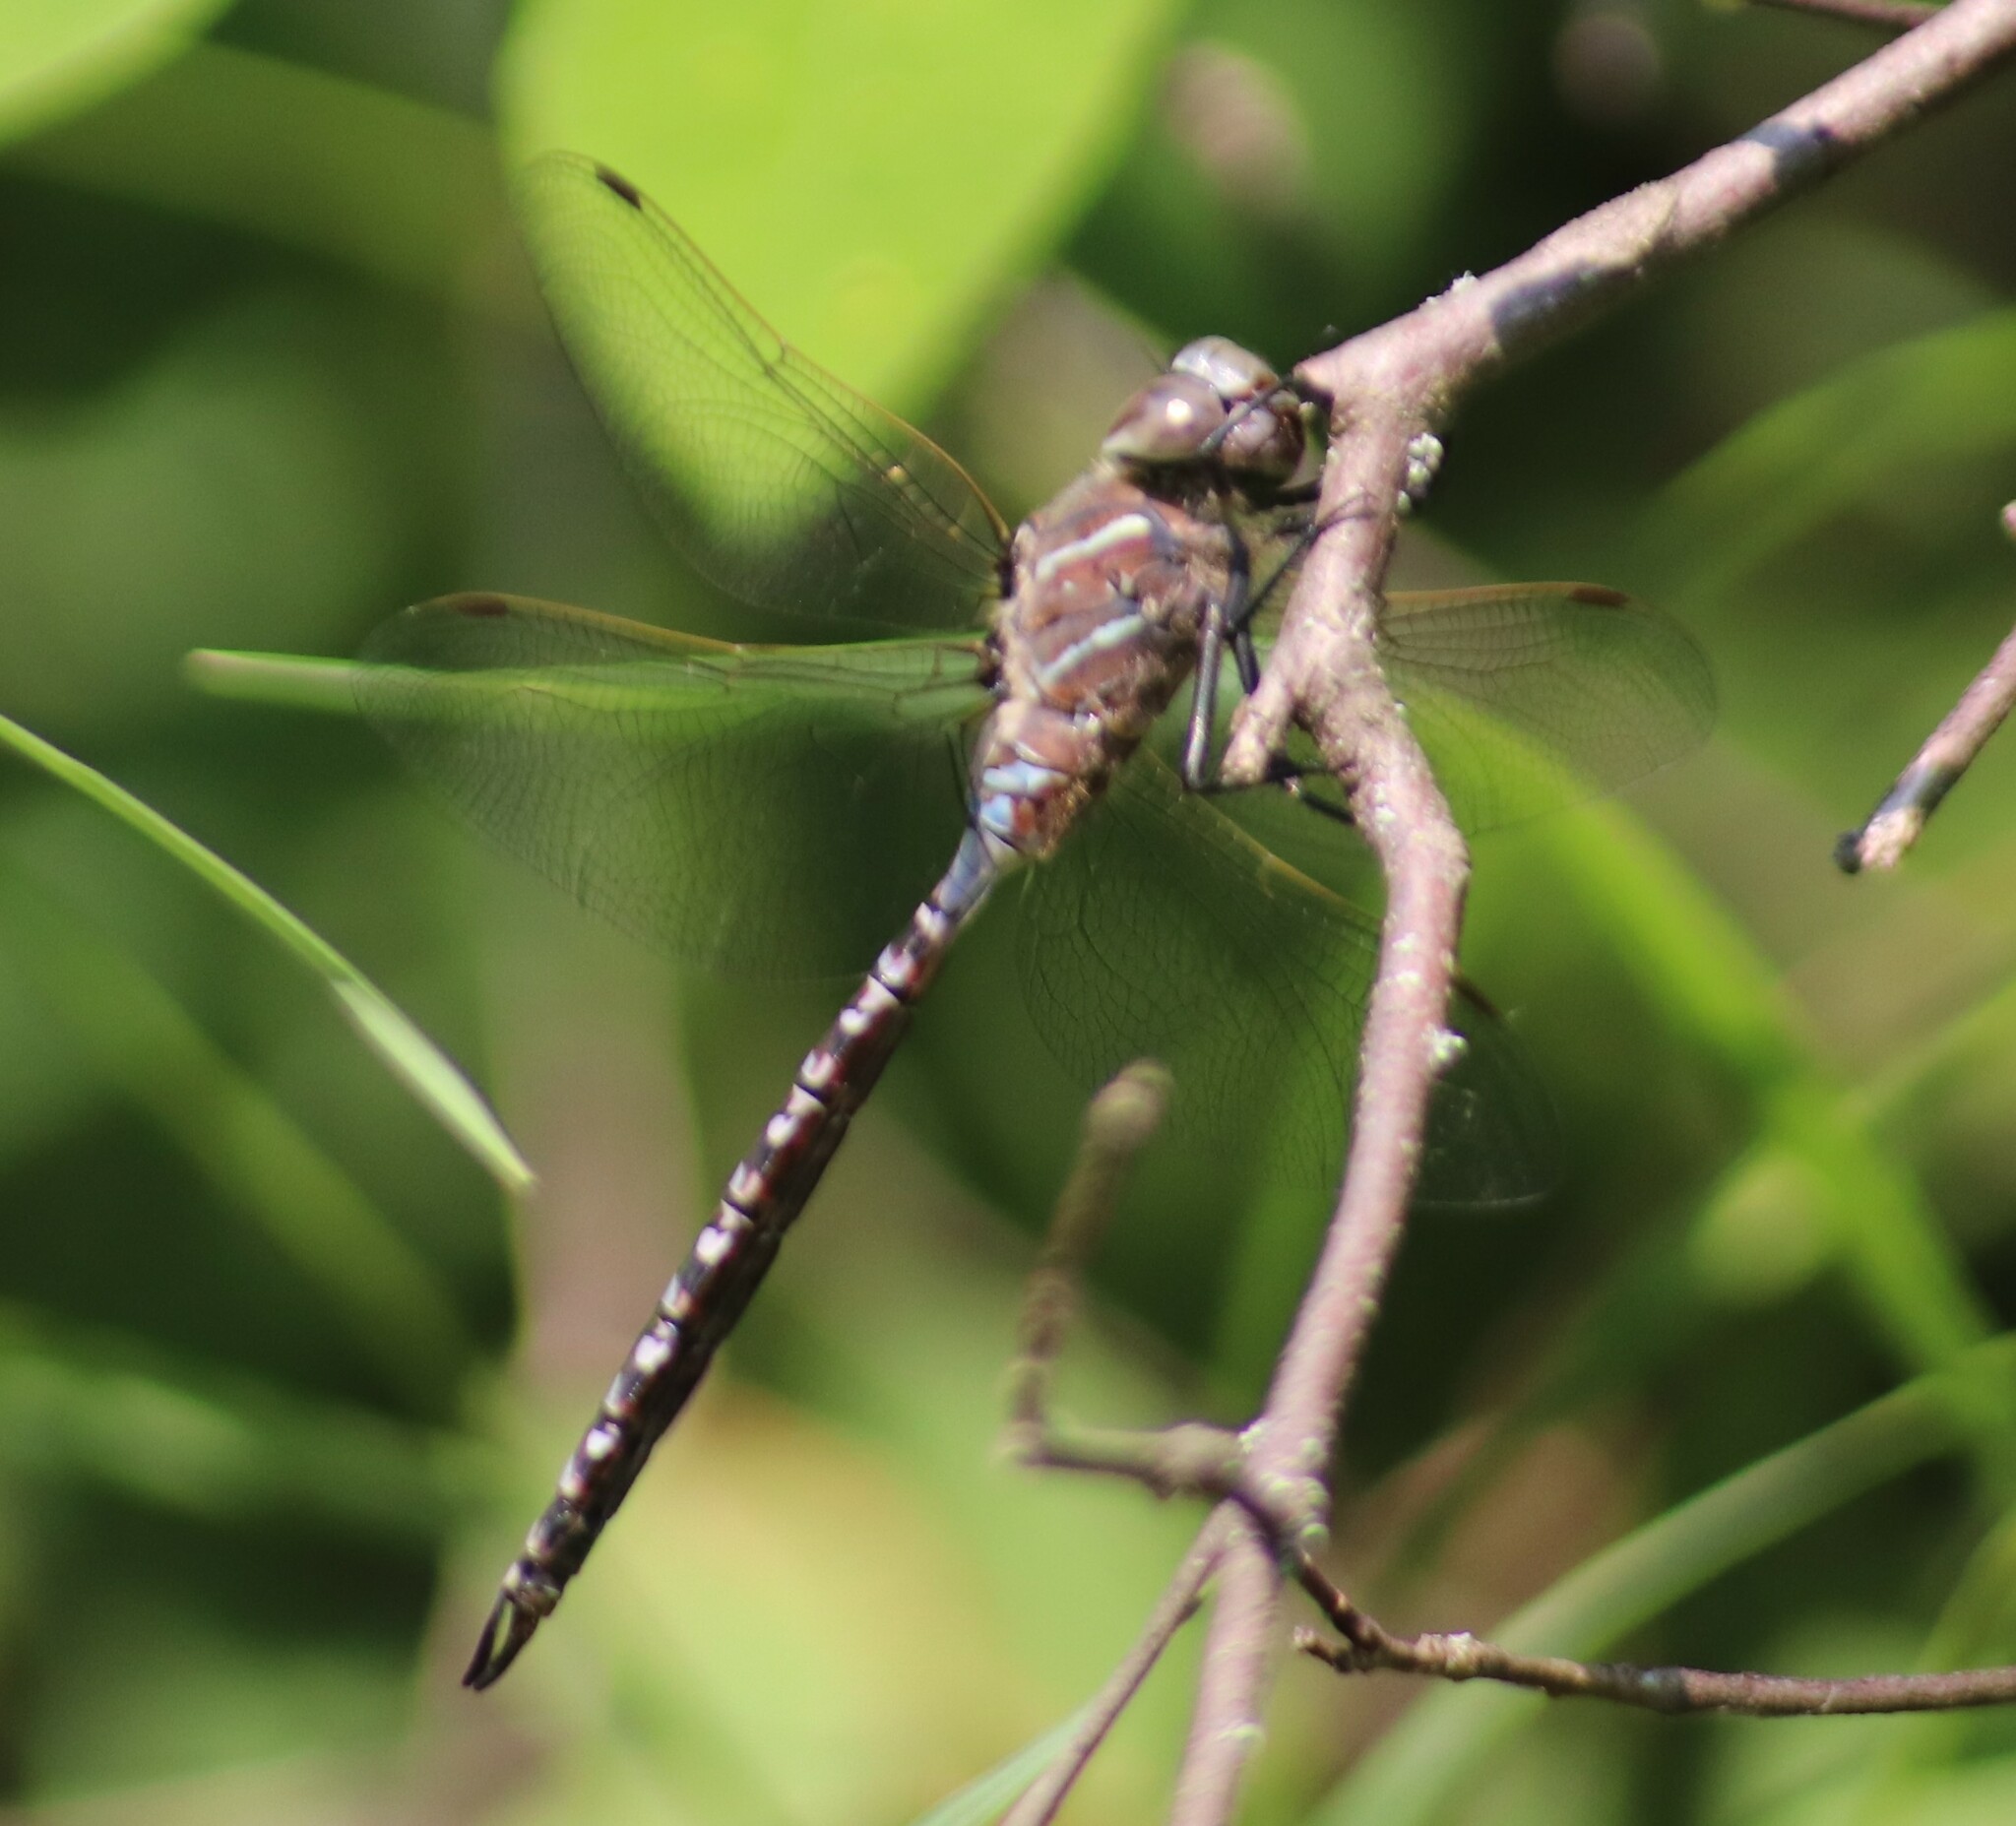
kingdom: Animalia
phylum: Arthropoda
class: Insecta
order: Odonata
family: Aeshnidae
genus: Aeshna
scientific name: Aeshna interrupta
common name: Variable darner
